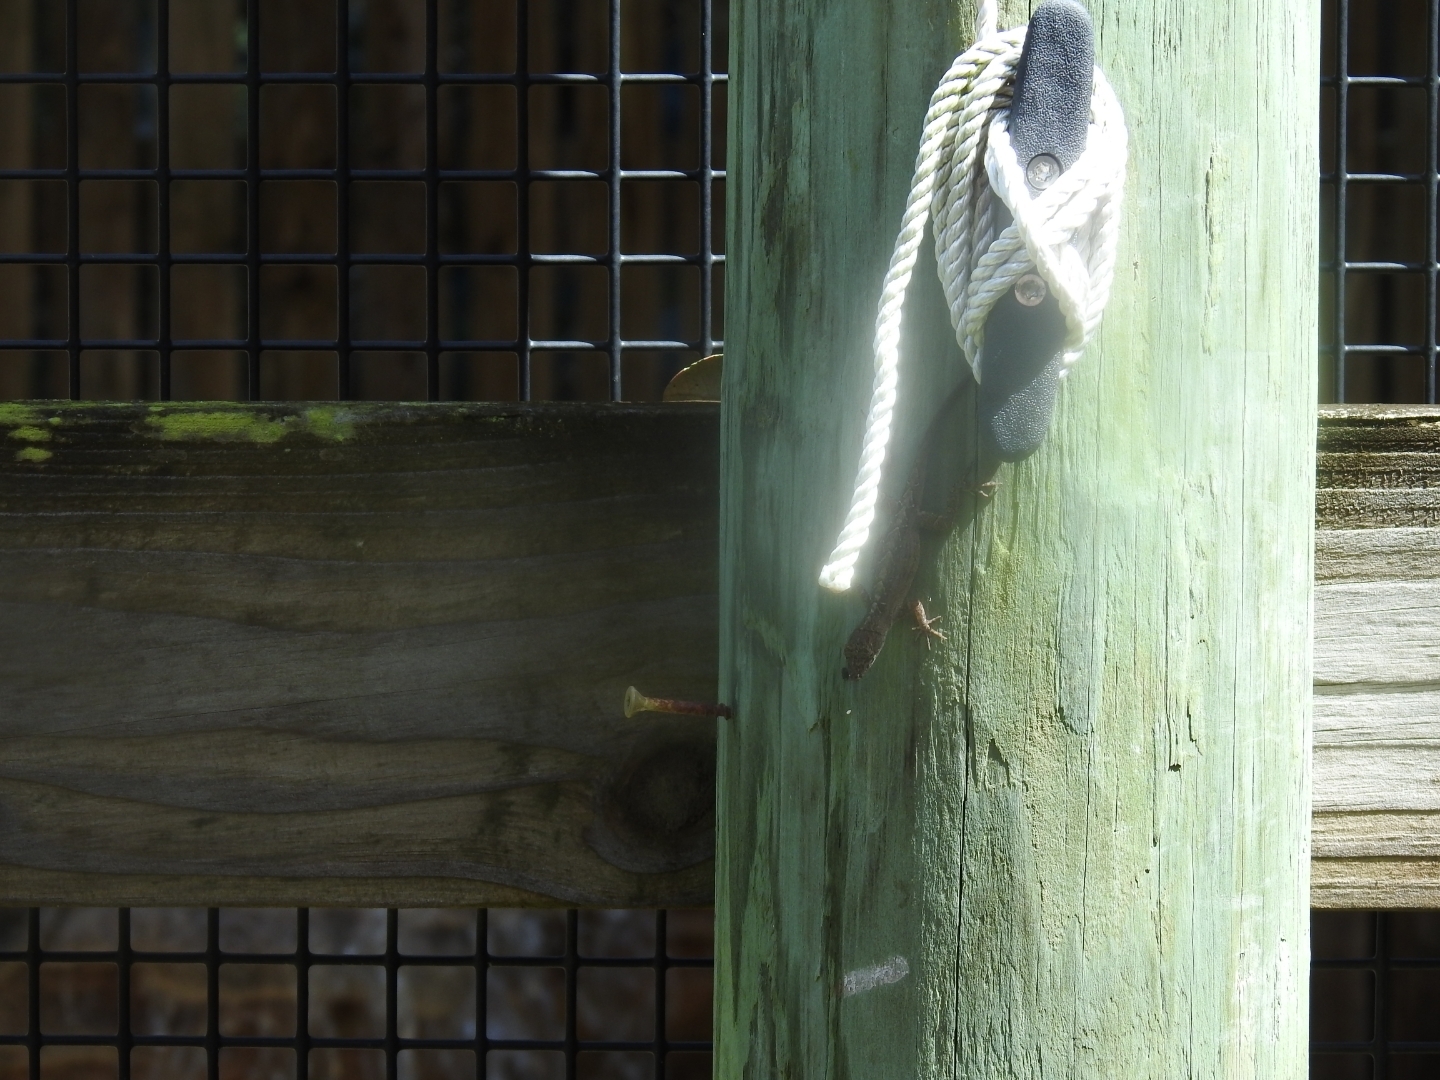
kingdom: Animalia
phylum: Chordata
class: Squamata
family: Dactyloidae
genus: Anolis
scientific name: Anolis sagrei
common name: Brown anole
